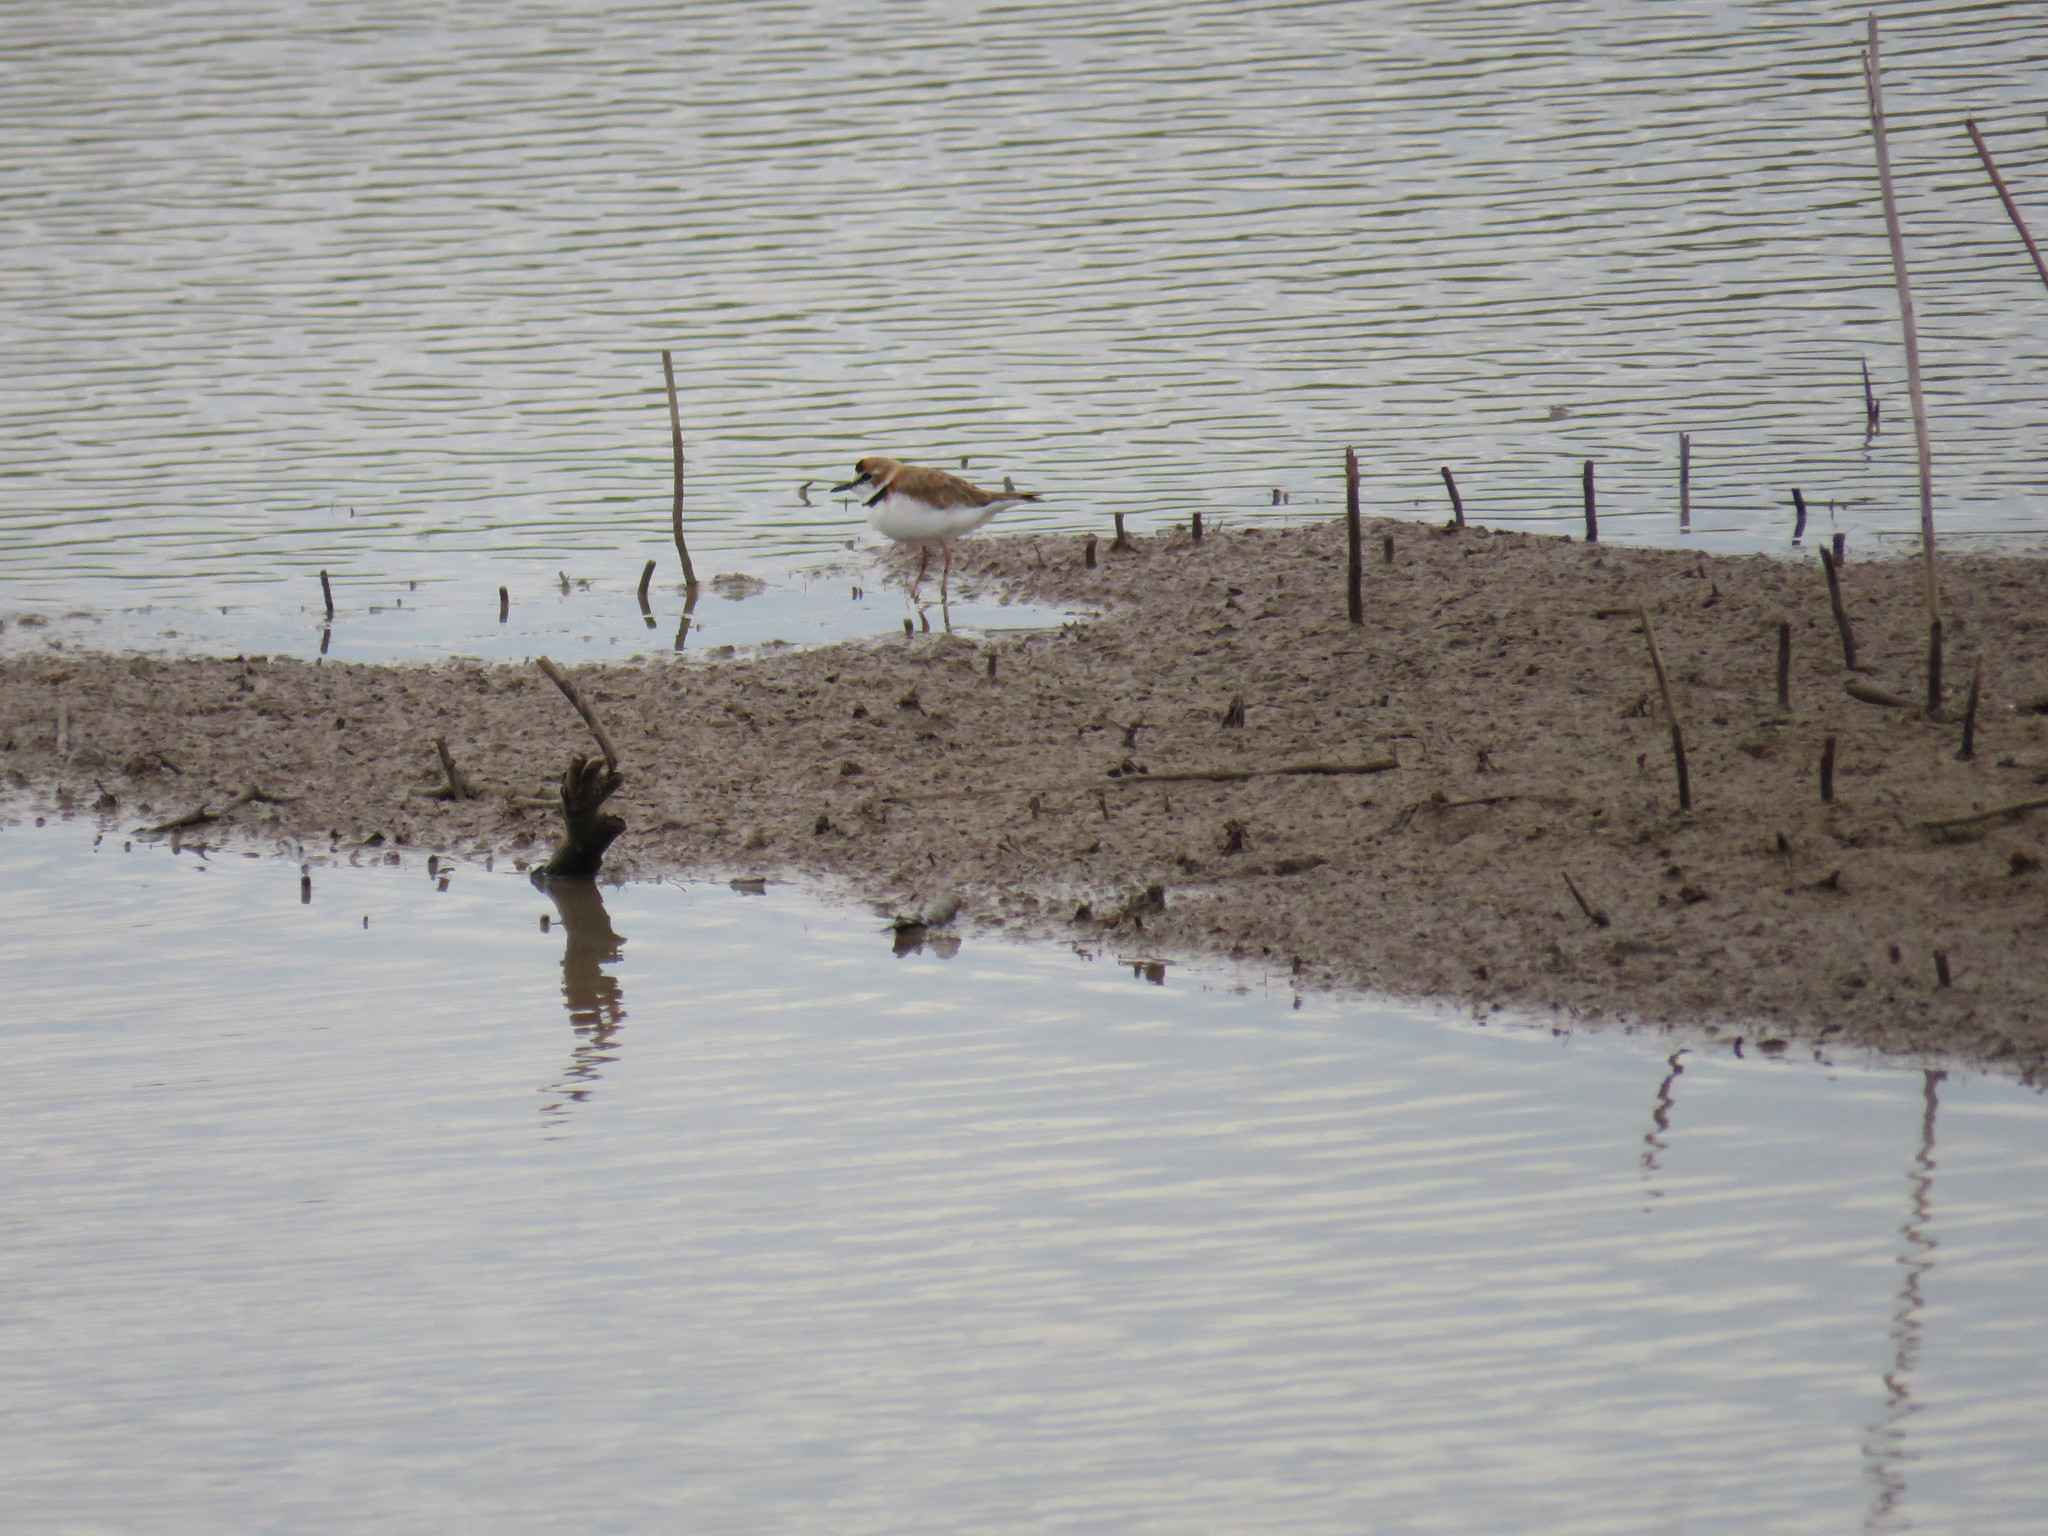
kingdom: Animalia
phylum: Chordata
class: Aves
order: Charadriiformes
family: Charadriidae
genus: Anarhynchus
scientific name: Anarhynchus
